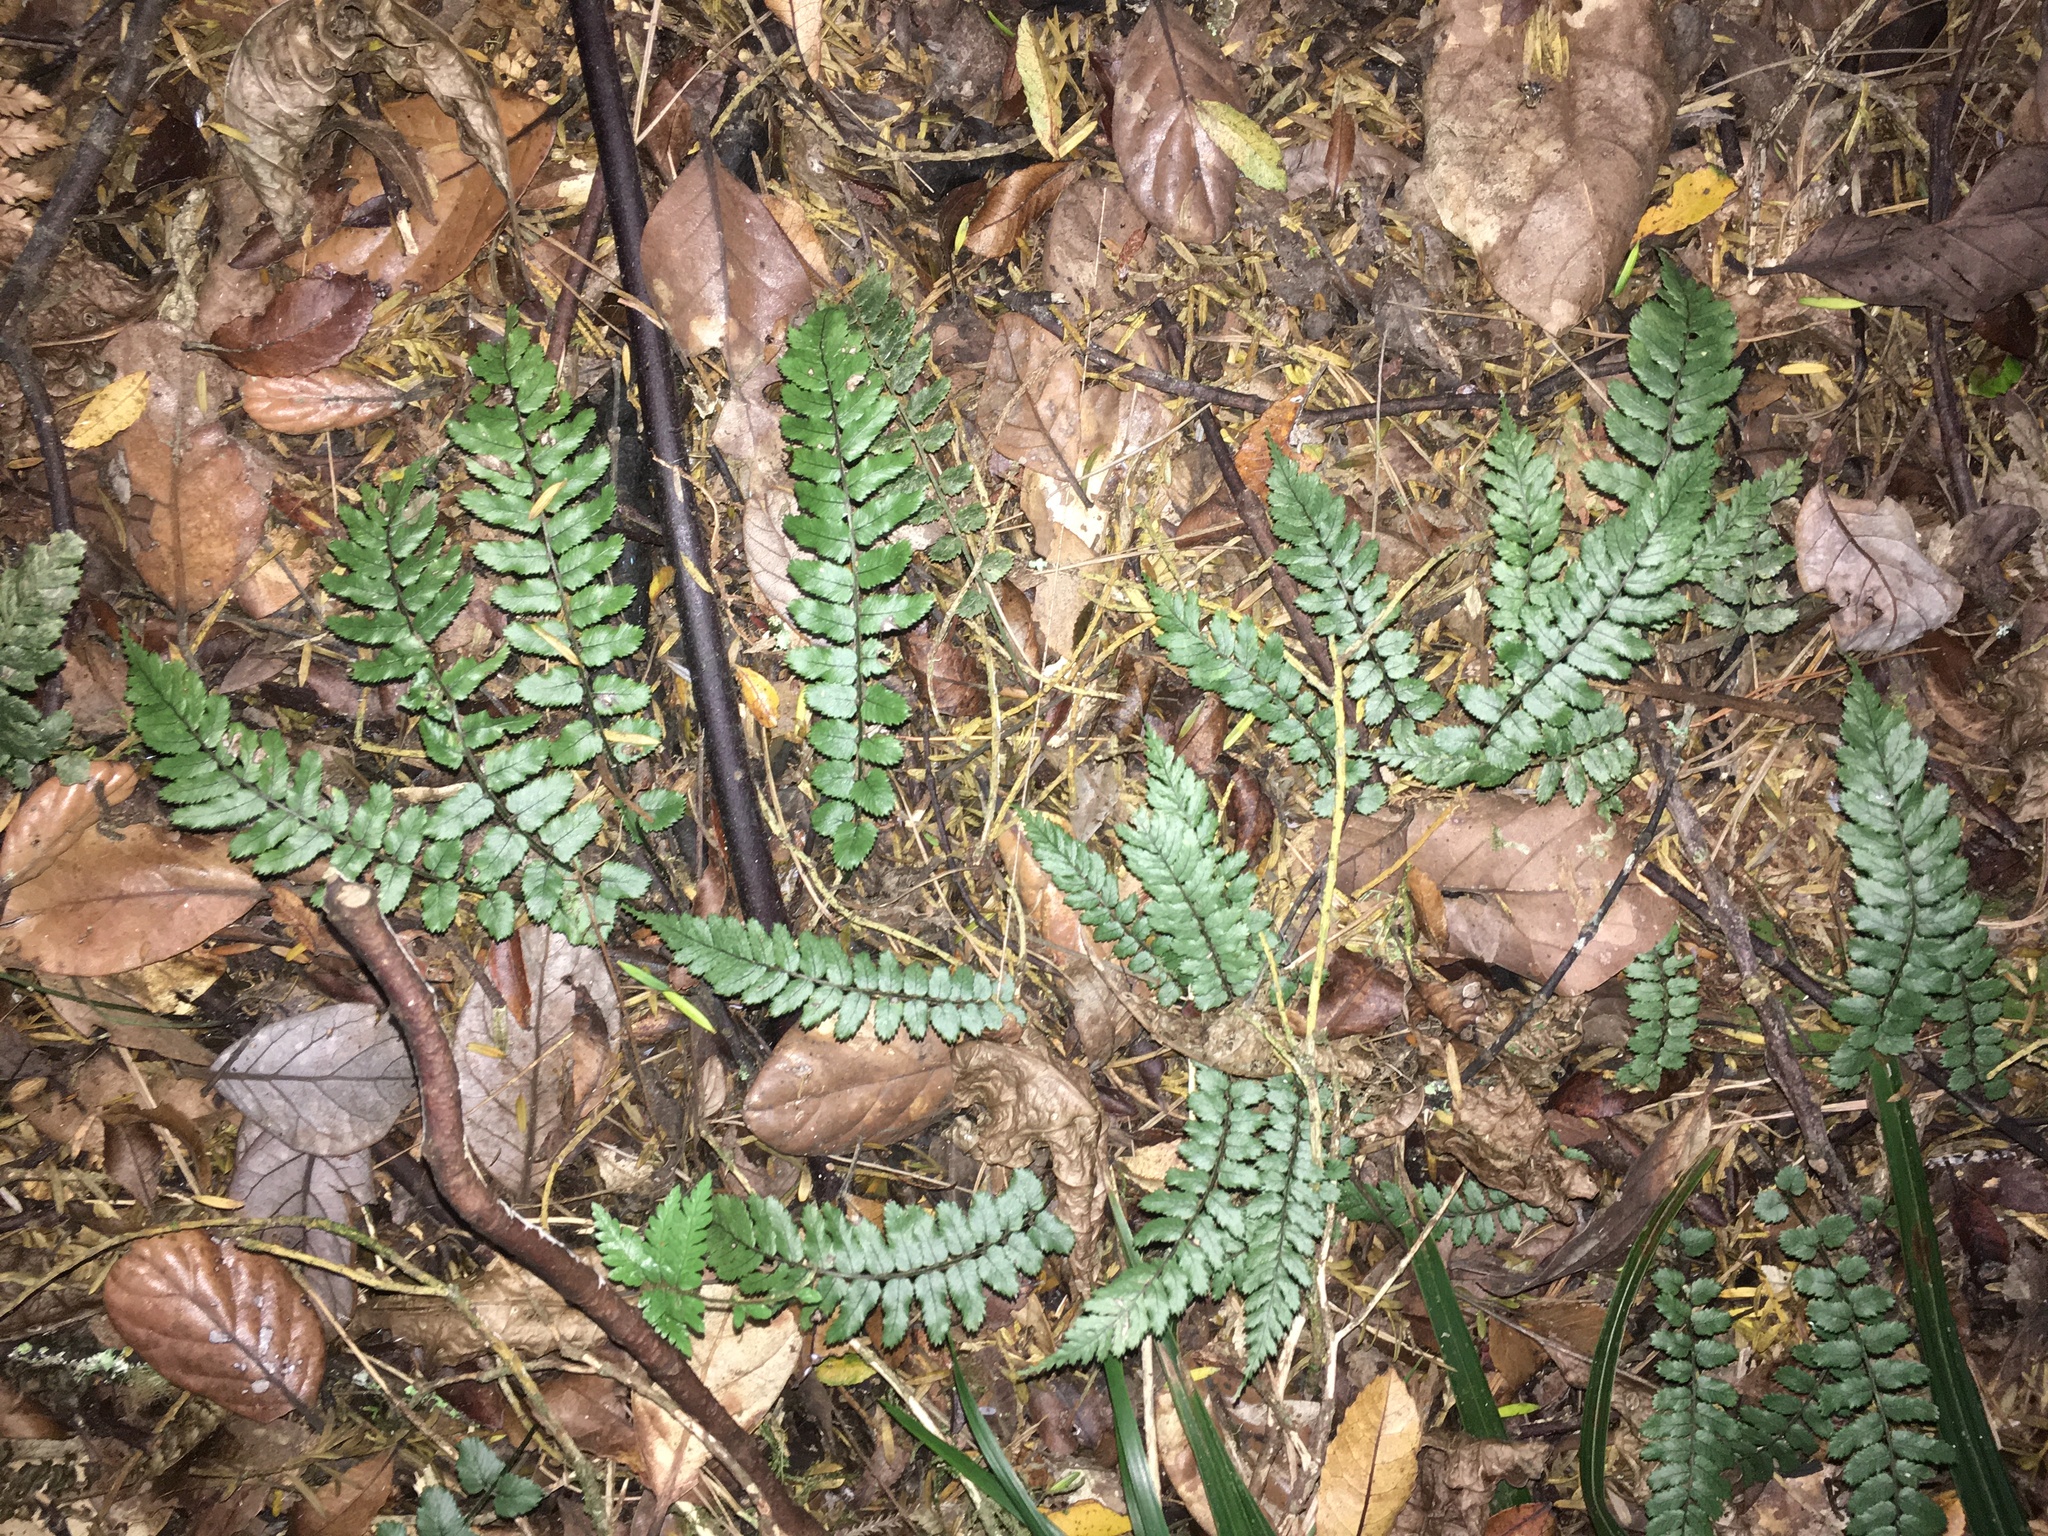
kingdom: Plantae
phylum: Tracheophyta
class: Polypodiopsida
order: Polypodiales
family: Blechnaceae
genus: Icarus
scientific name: Icarus filiformis
